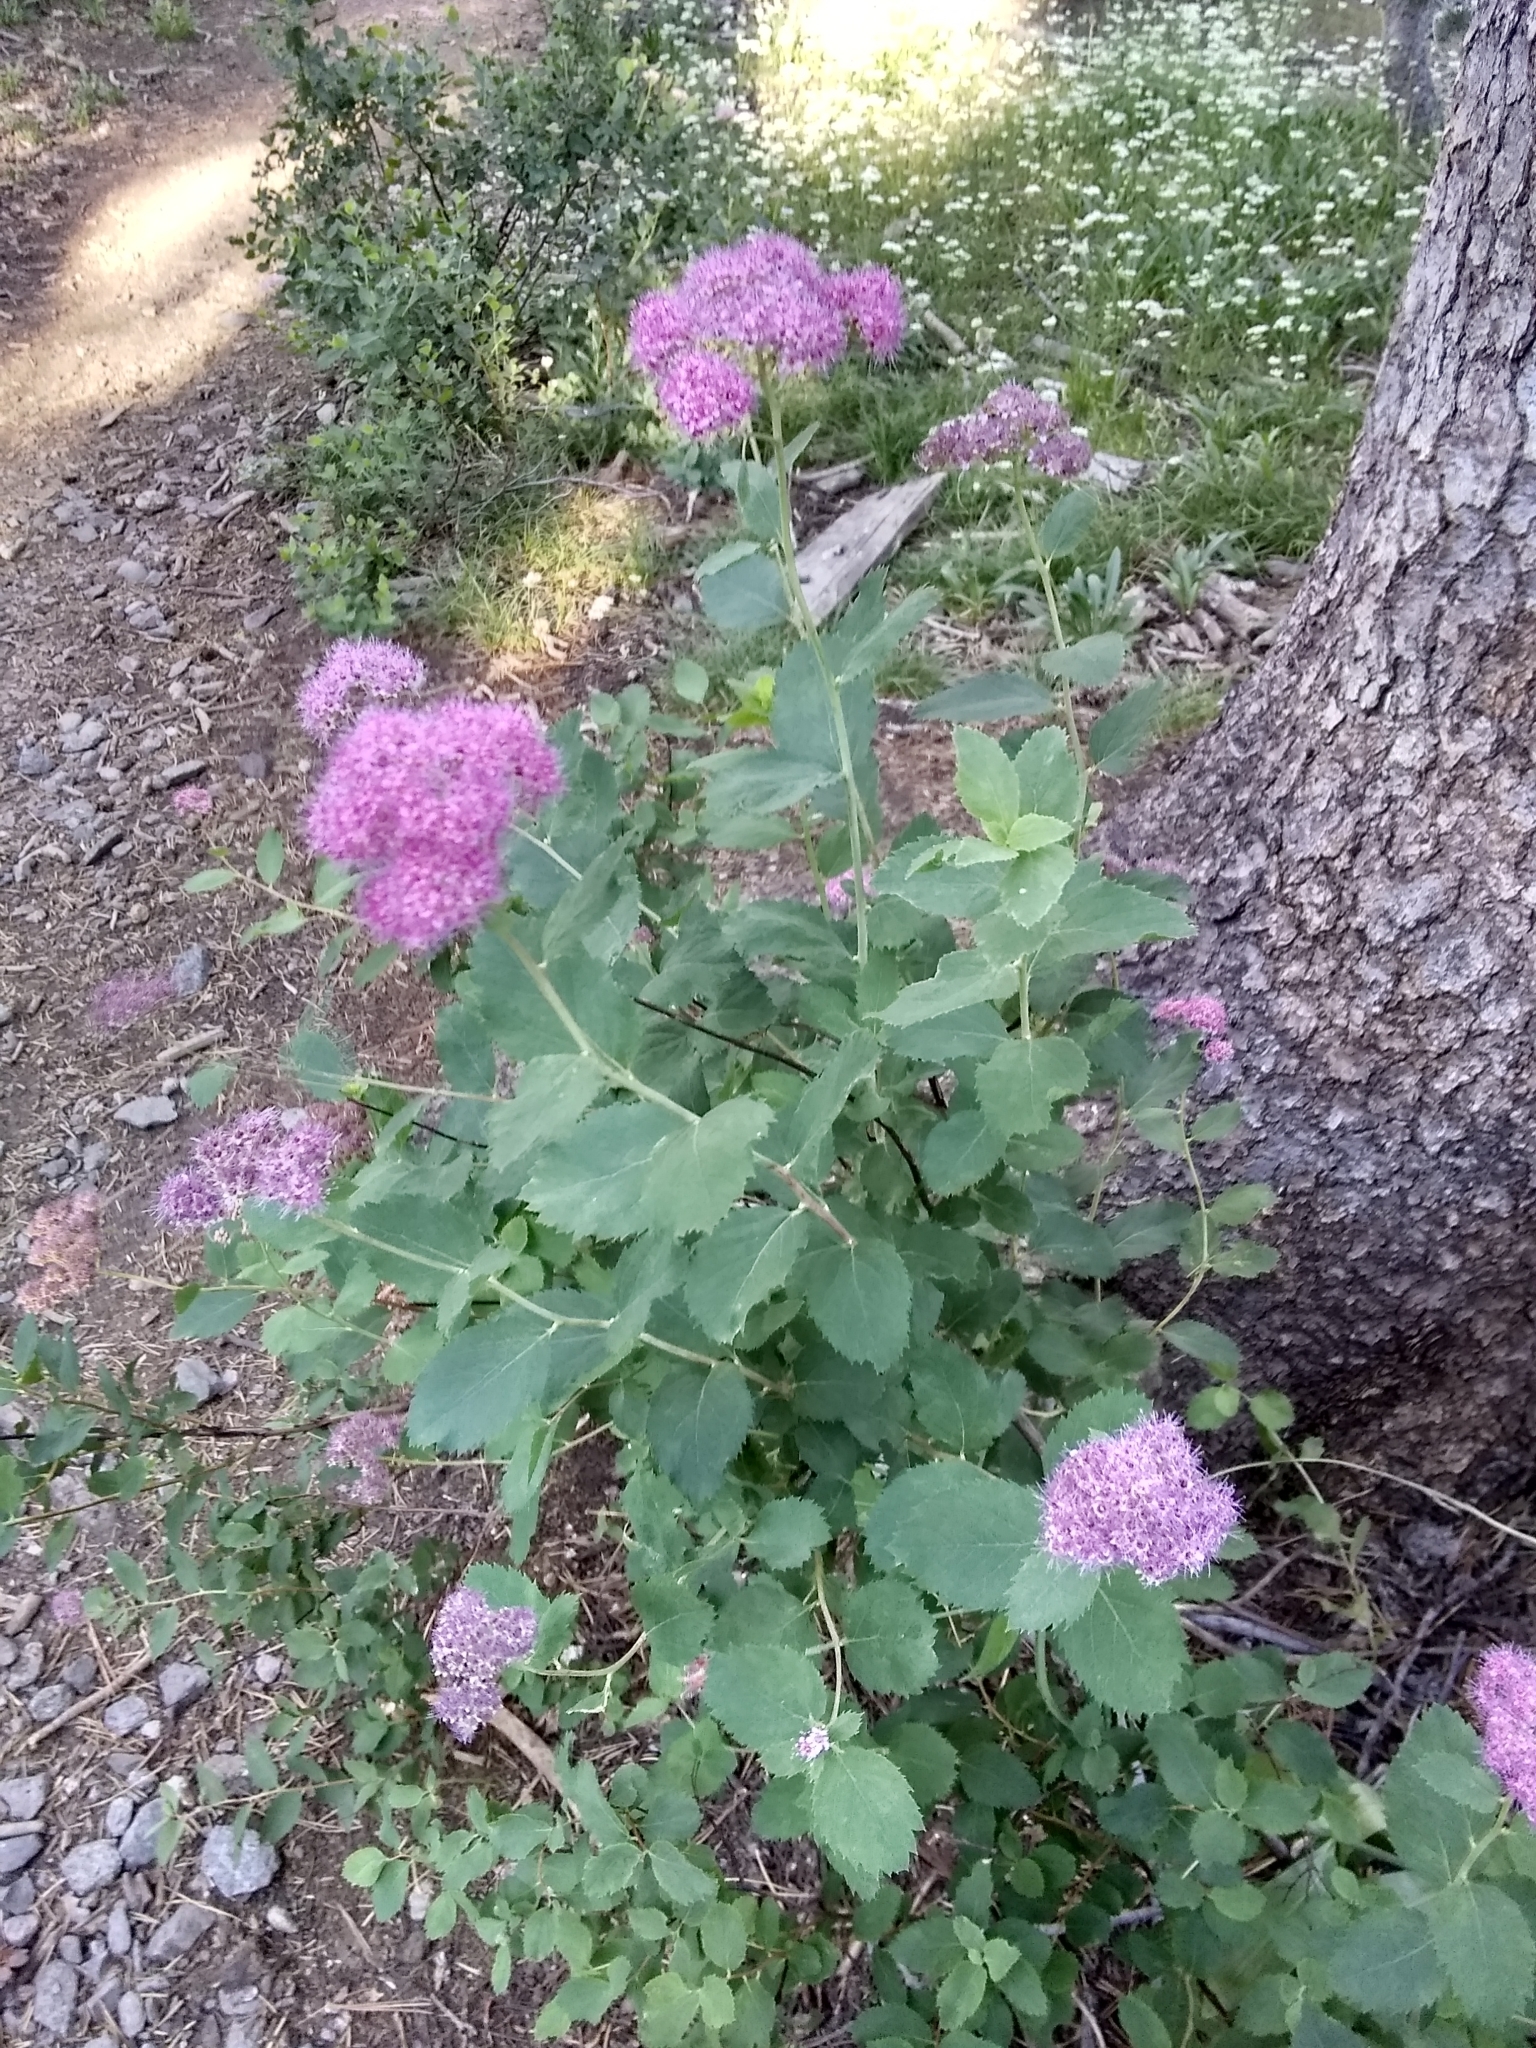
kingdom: Plantae
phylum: Tracheophyta
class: Magnoliopsida
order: Rosales
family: Rosaceae
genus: Spiraea
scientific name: Spiraea splendens
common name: Subalpine meadowsweet
